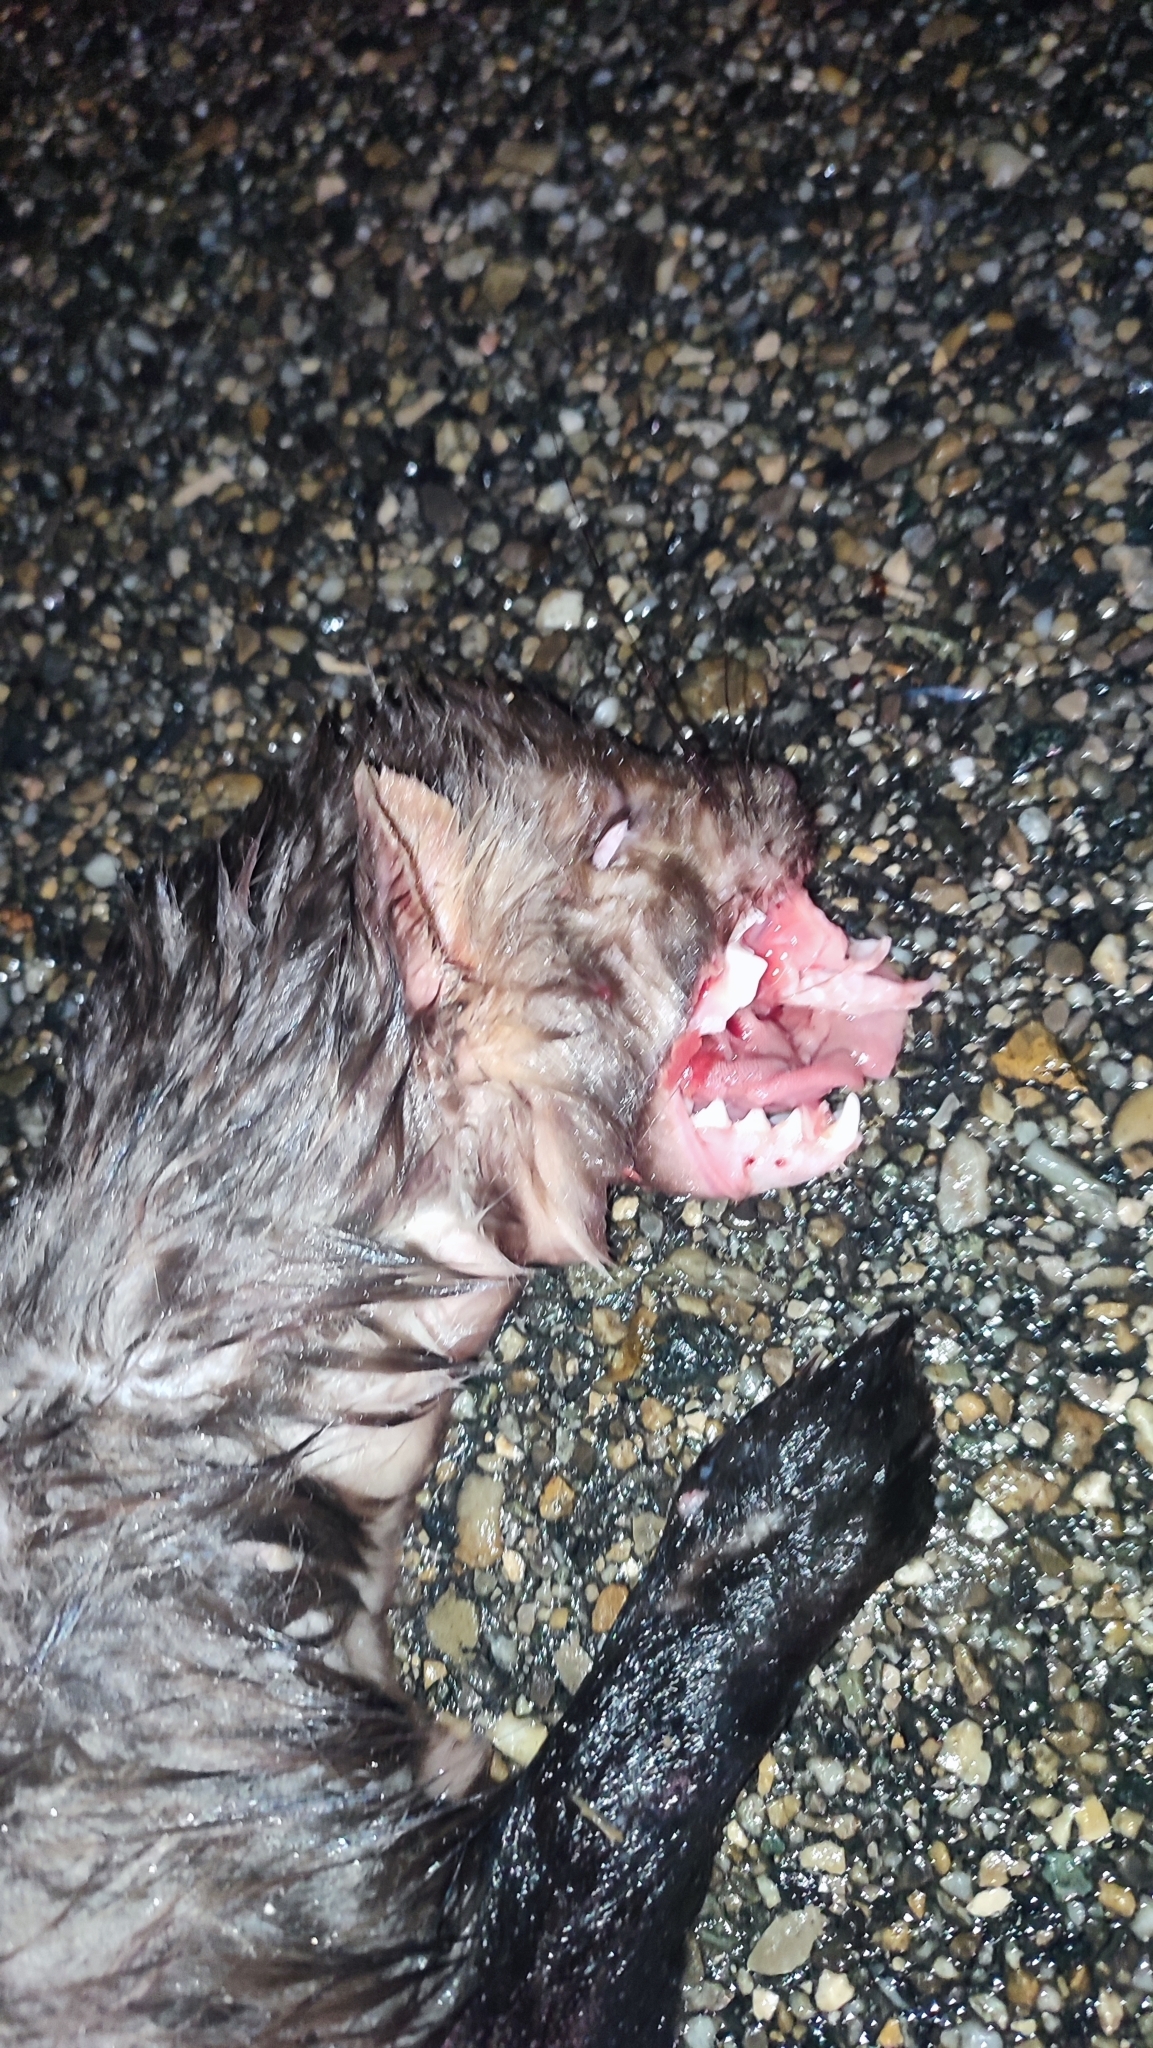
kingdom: Animalia
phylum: Chordata
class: Mammalia
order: Carnivora
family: Mustelidae
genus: Martes
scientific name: Martes foina
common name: Beech marten
